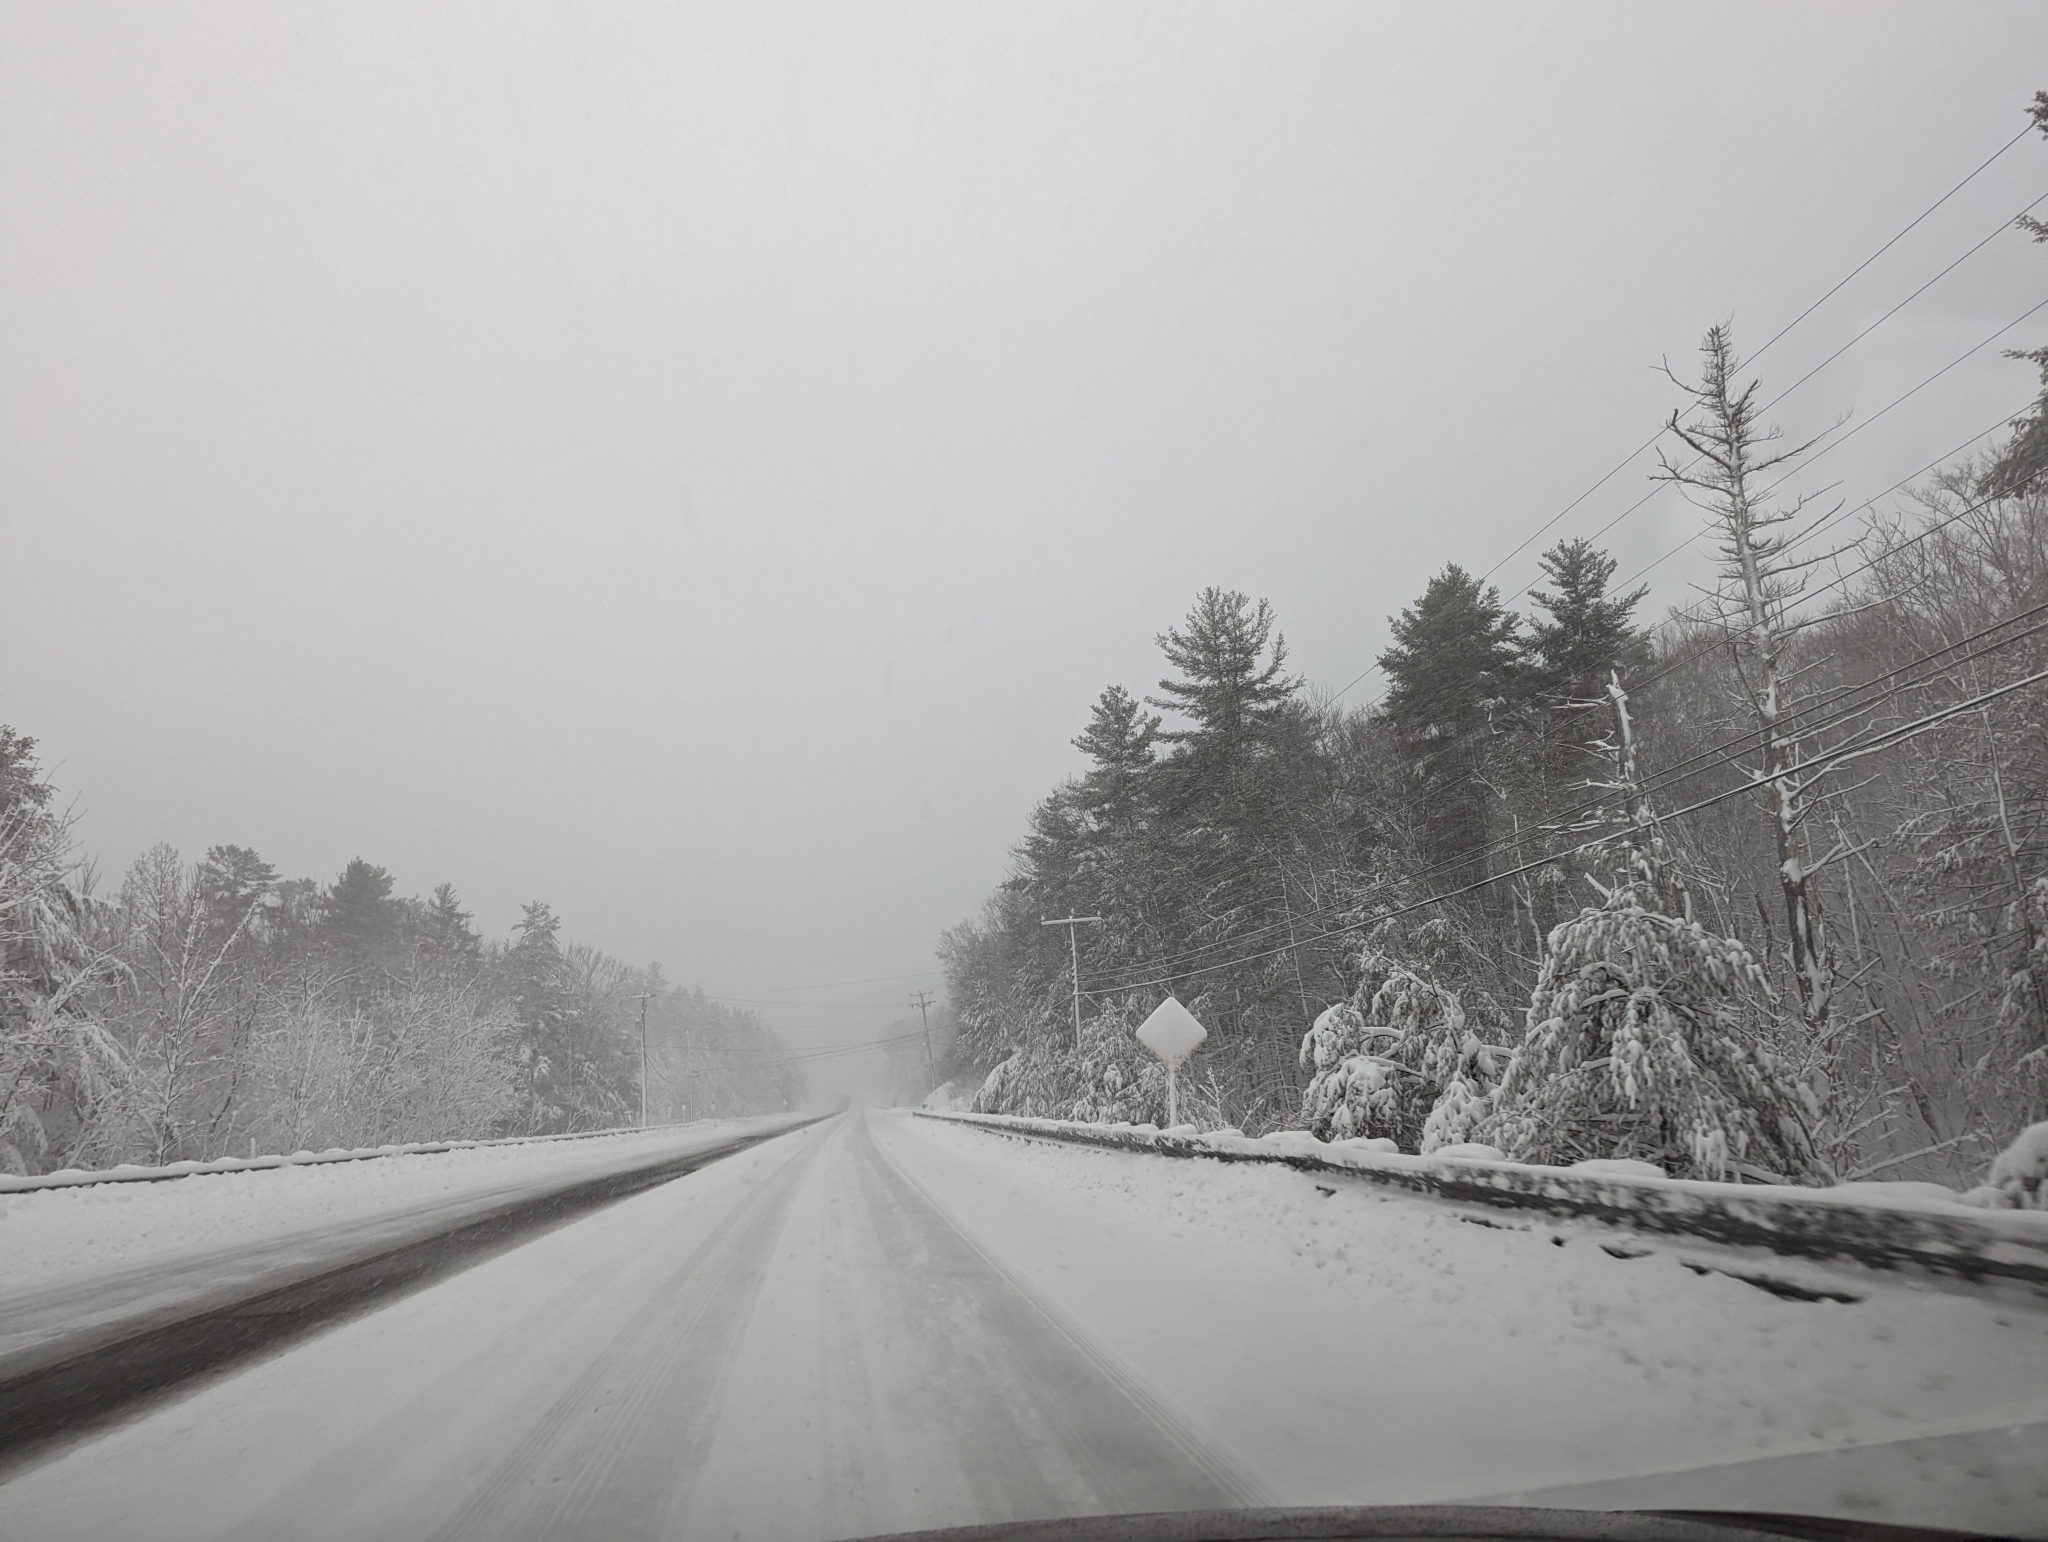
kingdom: Plantae
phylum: Tracheophyta
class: Pinopsida
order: Pinales
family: Pinaceae
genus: Pinus
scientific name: Pinus strobus
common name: Weymouth pine
